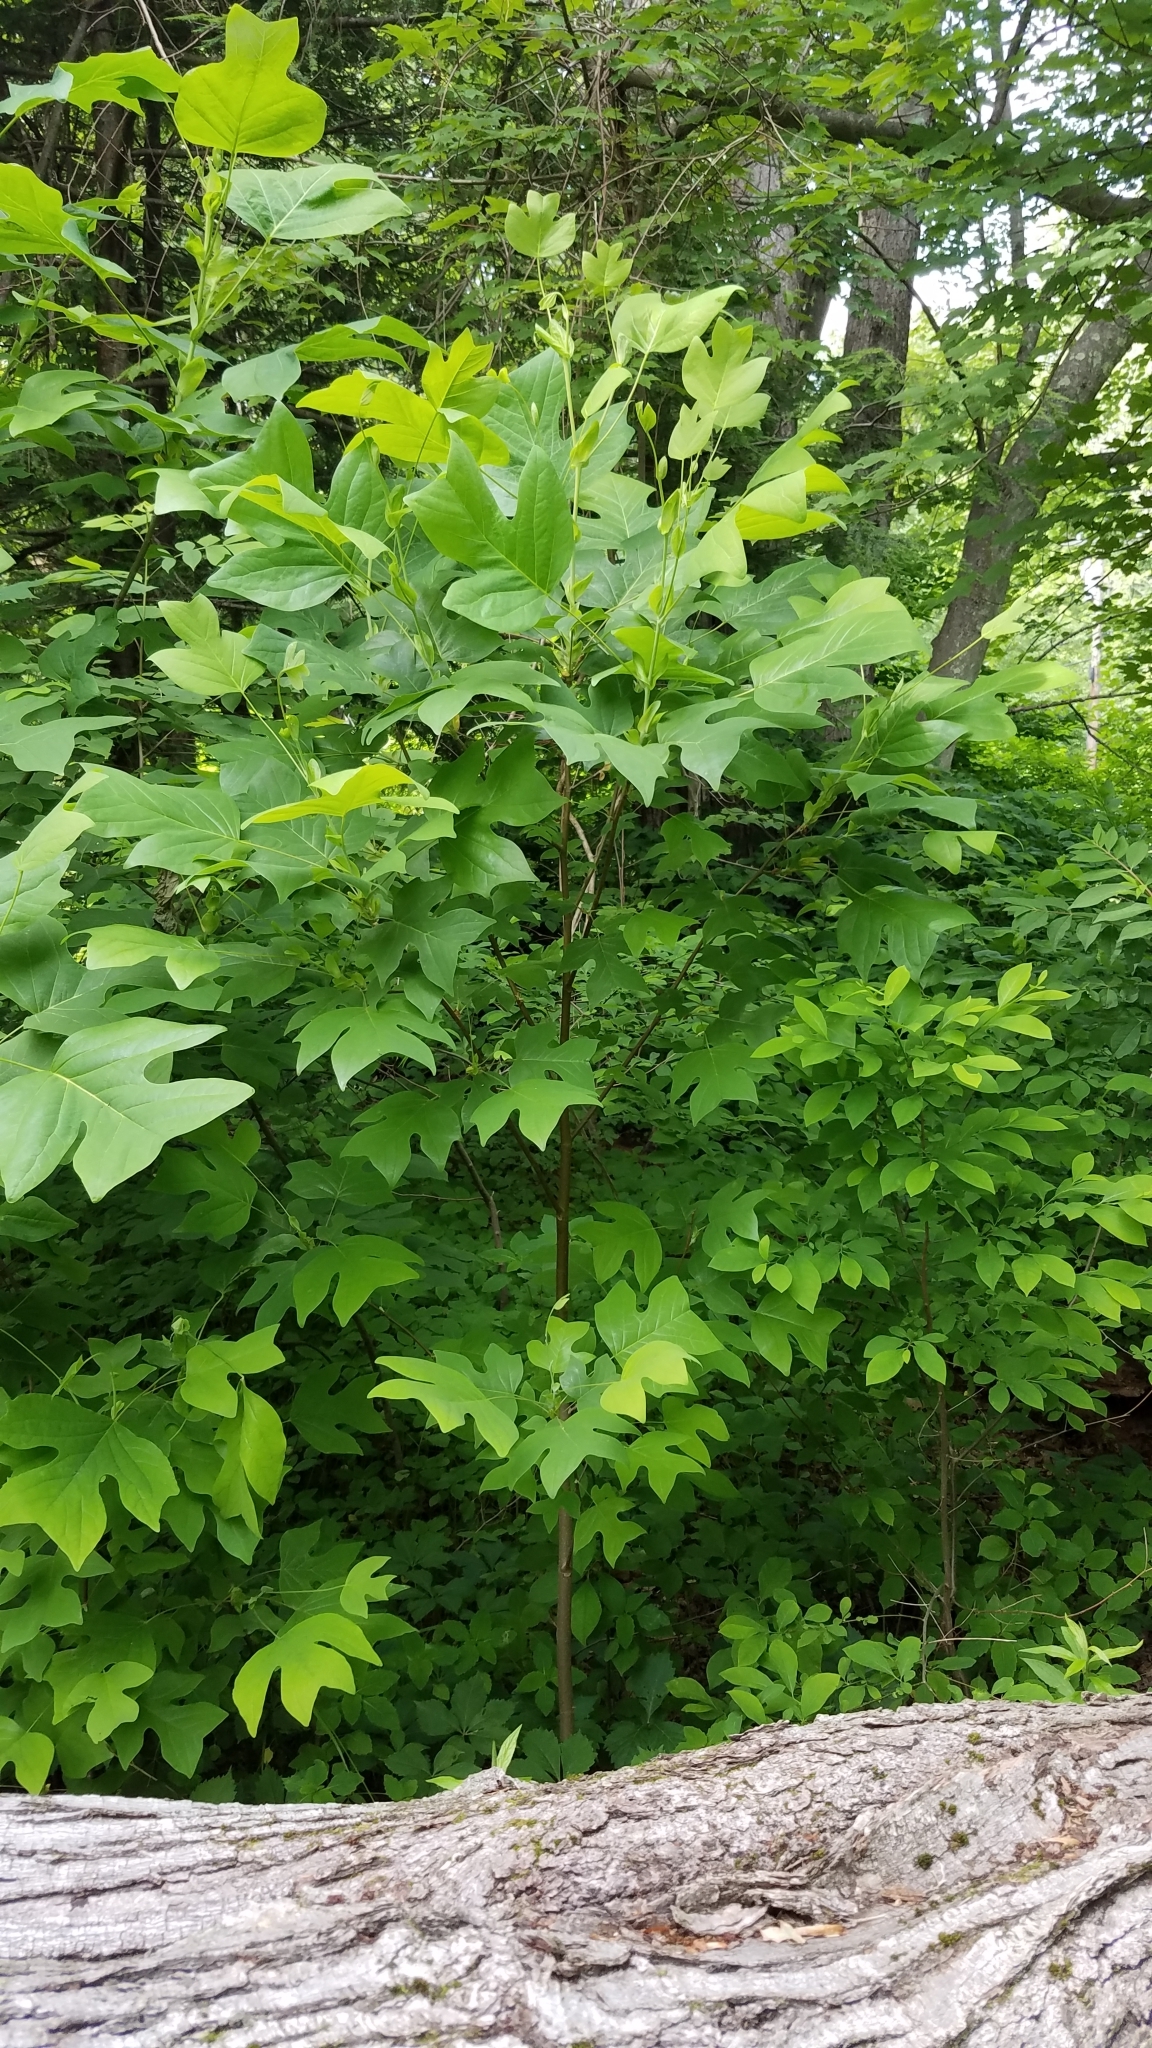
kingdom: Plantae
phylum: Tracheophyta
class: Magnoliopsida
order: Magnoliales
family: Magnoliaceae
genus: Liriodendron
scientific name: Liriodendron tulipifera
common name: Tulip tree
